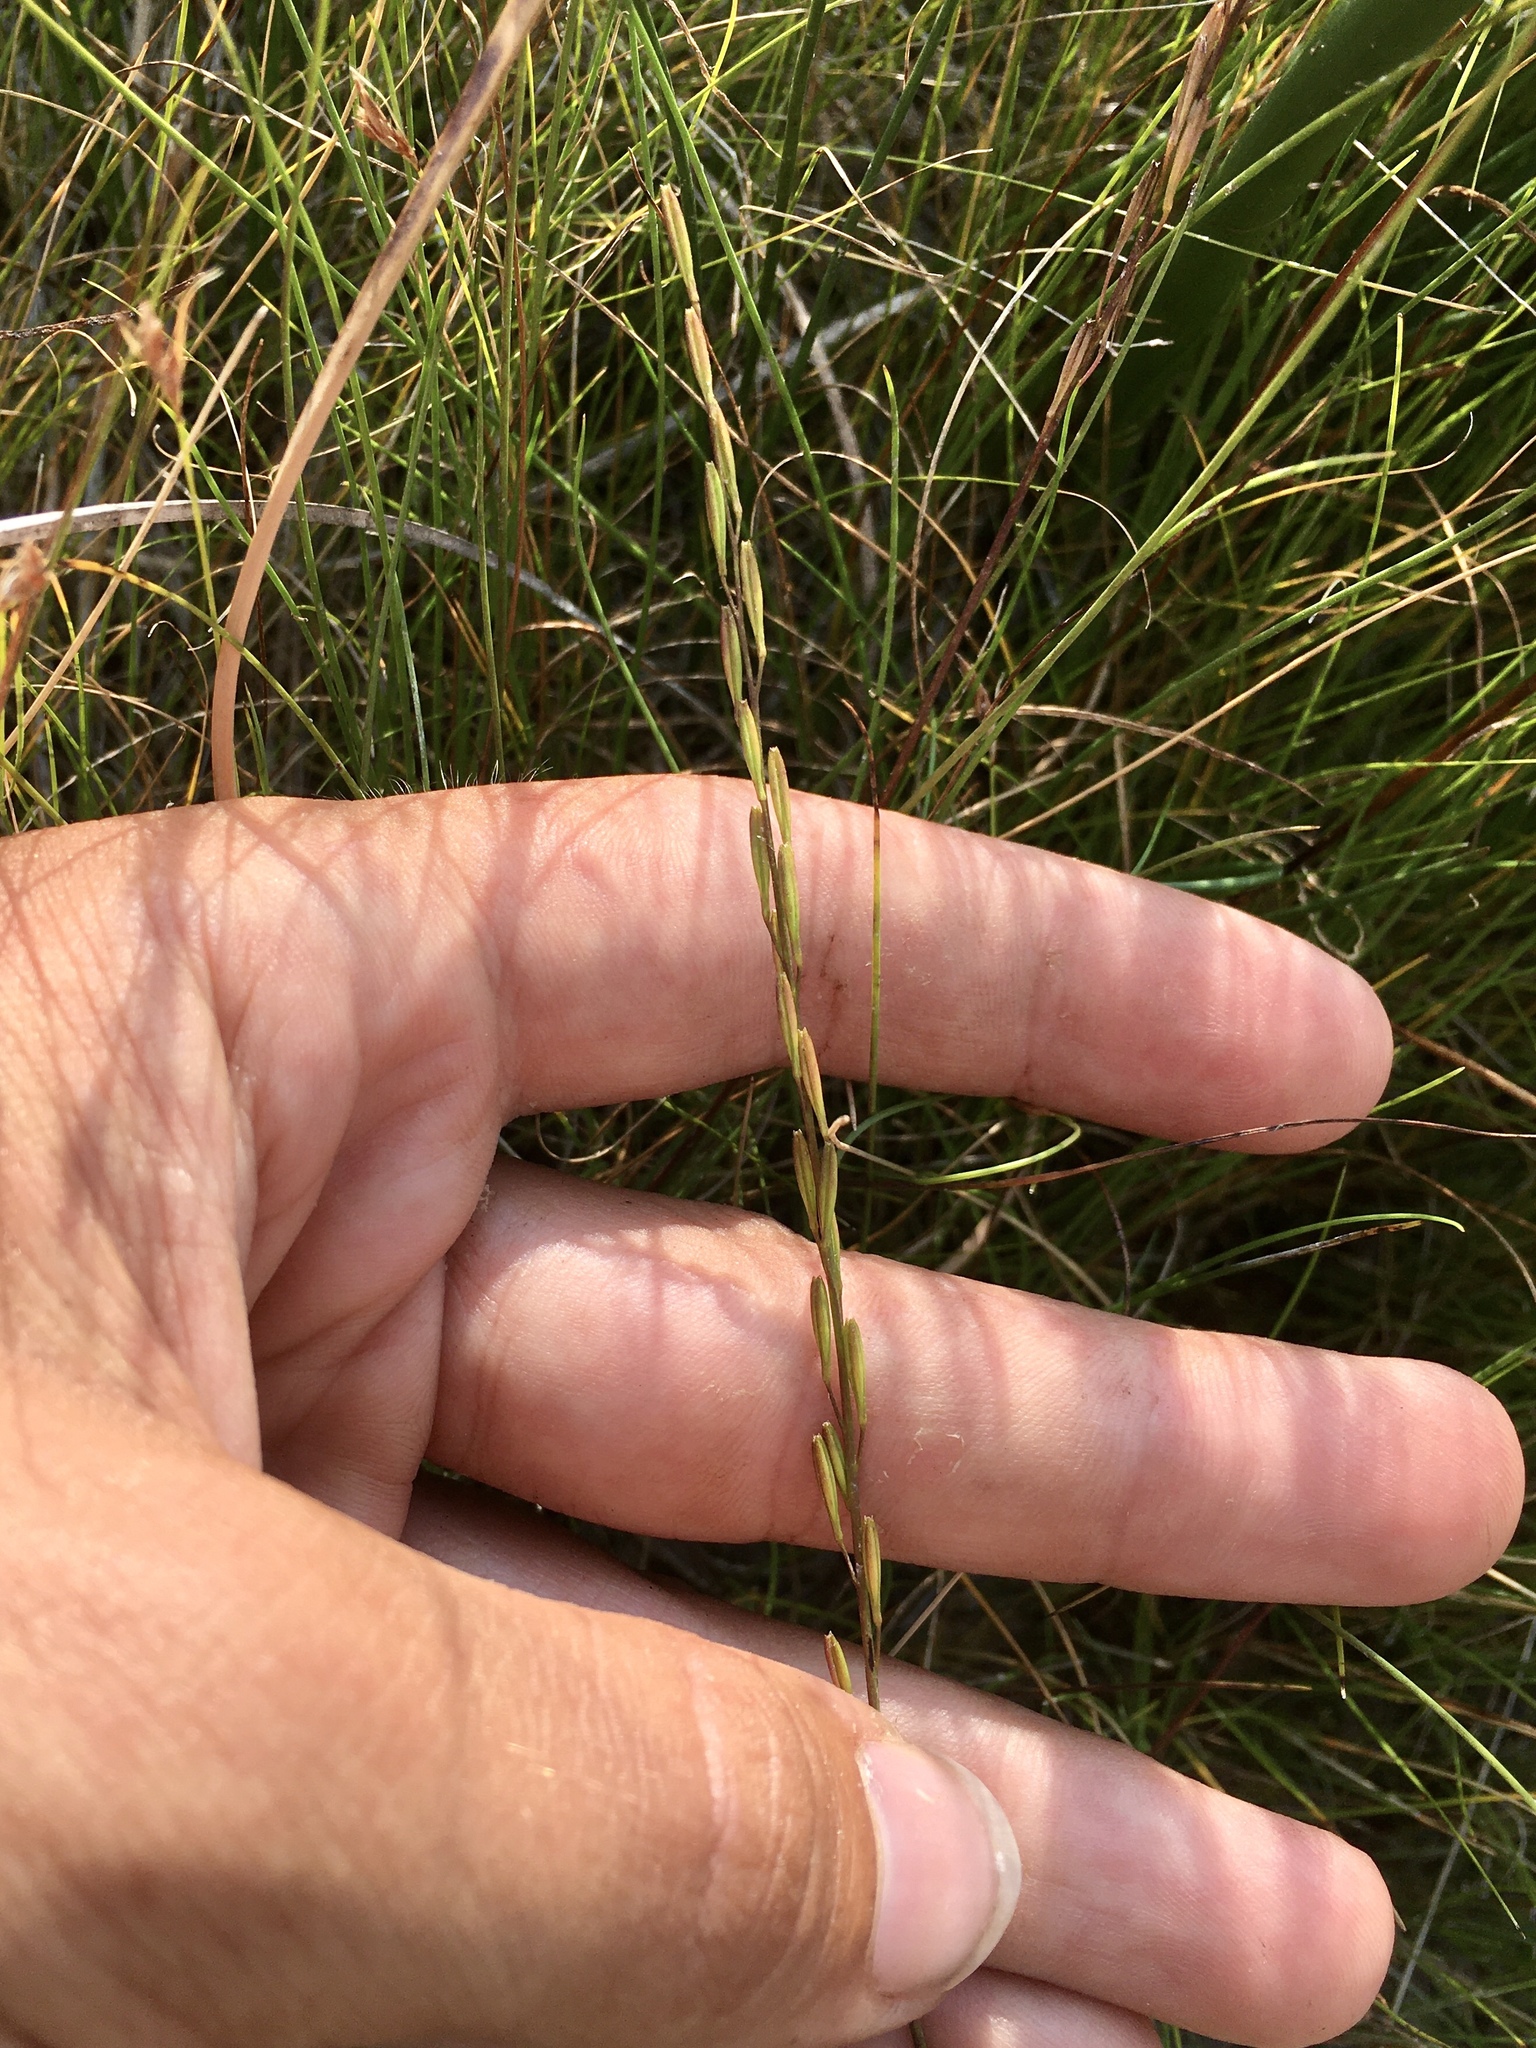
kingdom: Plantae
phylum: Tracheophyta
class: Liliopsida
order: Alismatales
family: Juncaginaceae
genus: Triglochin
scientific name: Triglochin palustris
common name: Marsh arrowgrass
